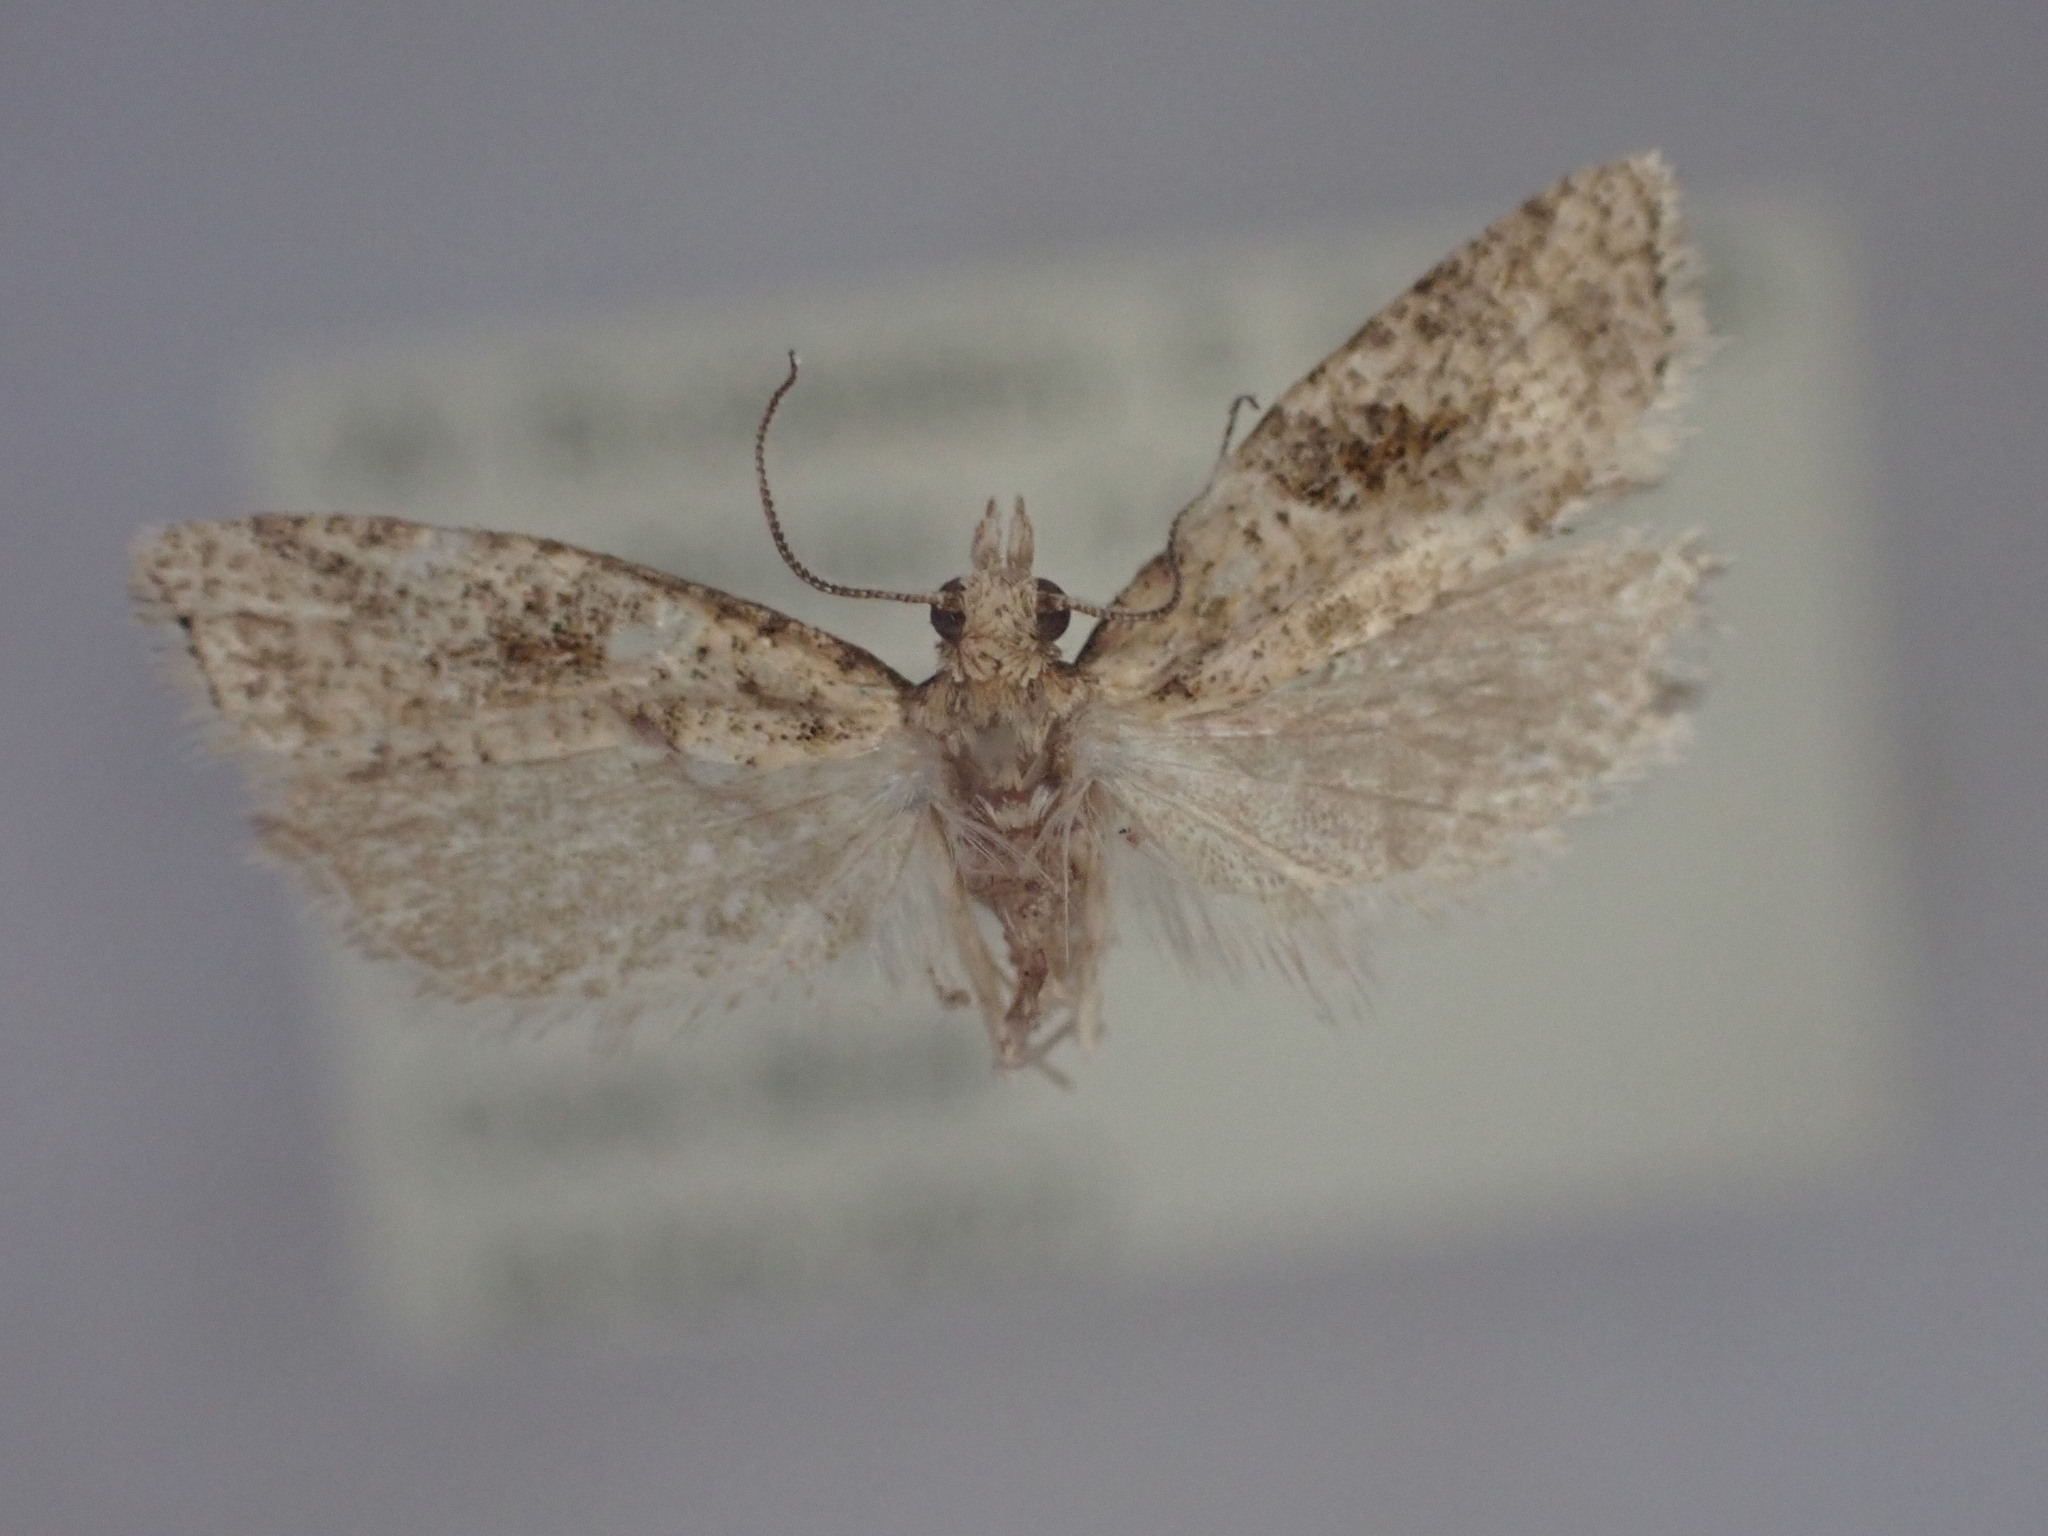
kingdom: Animalia
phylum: Arthropoda
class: Insecta
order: Lepidoptera
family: Tortricidae
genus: Capua
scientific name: Capua semiferana
